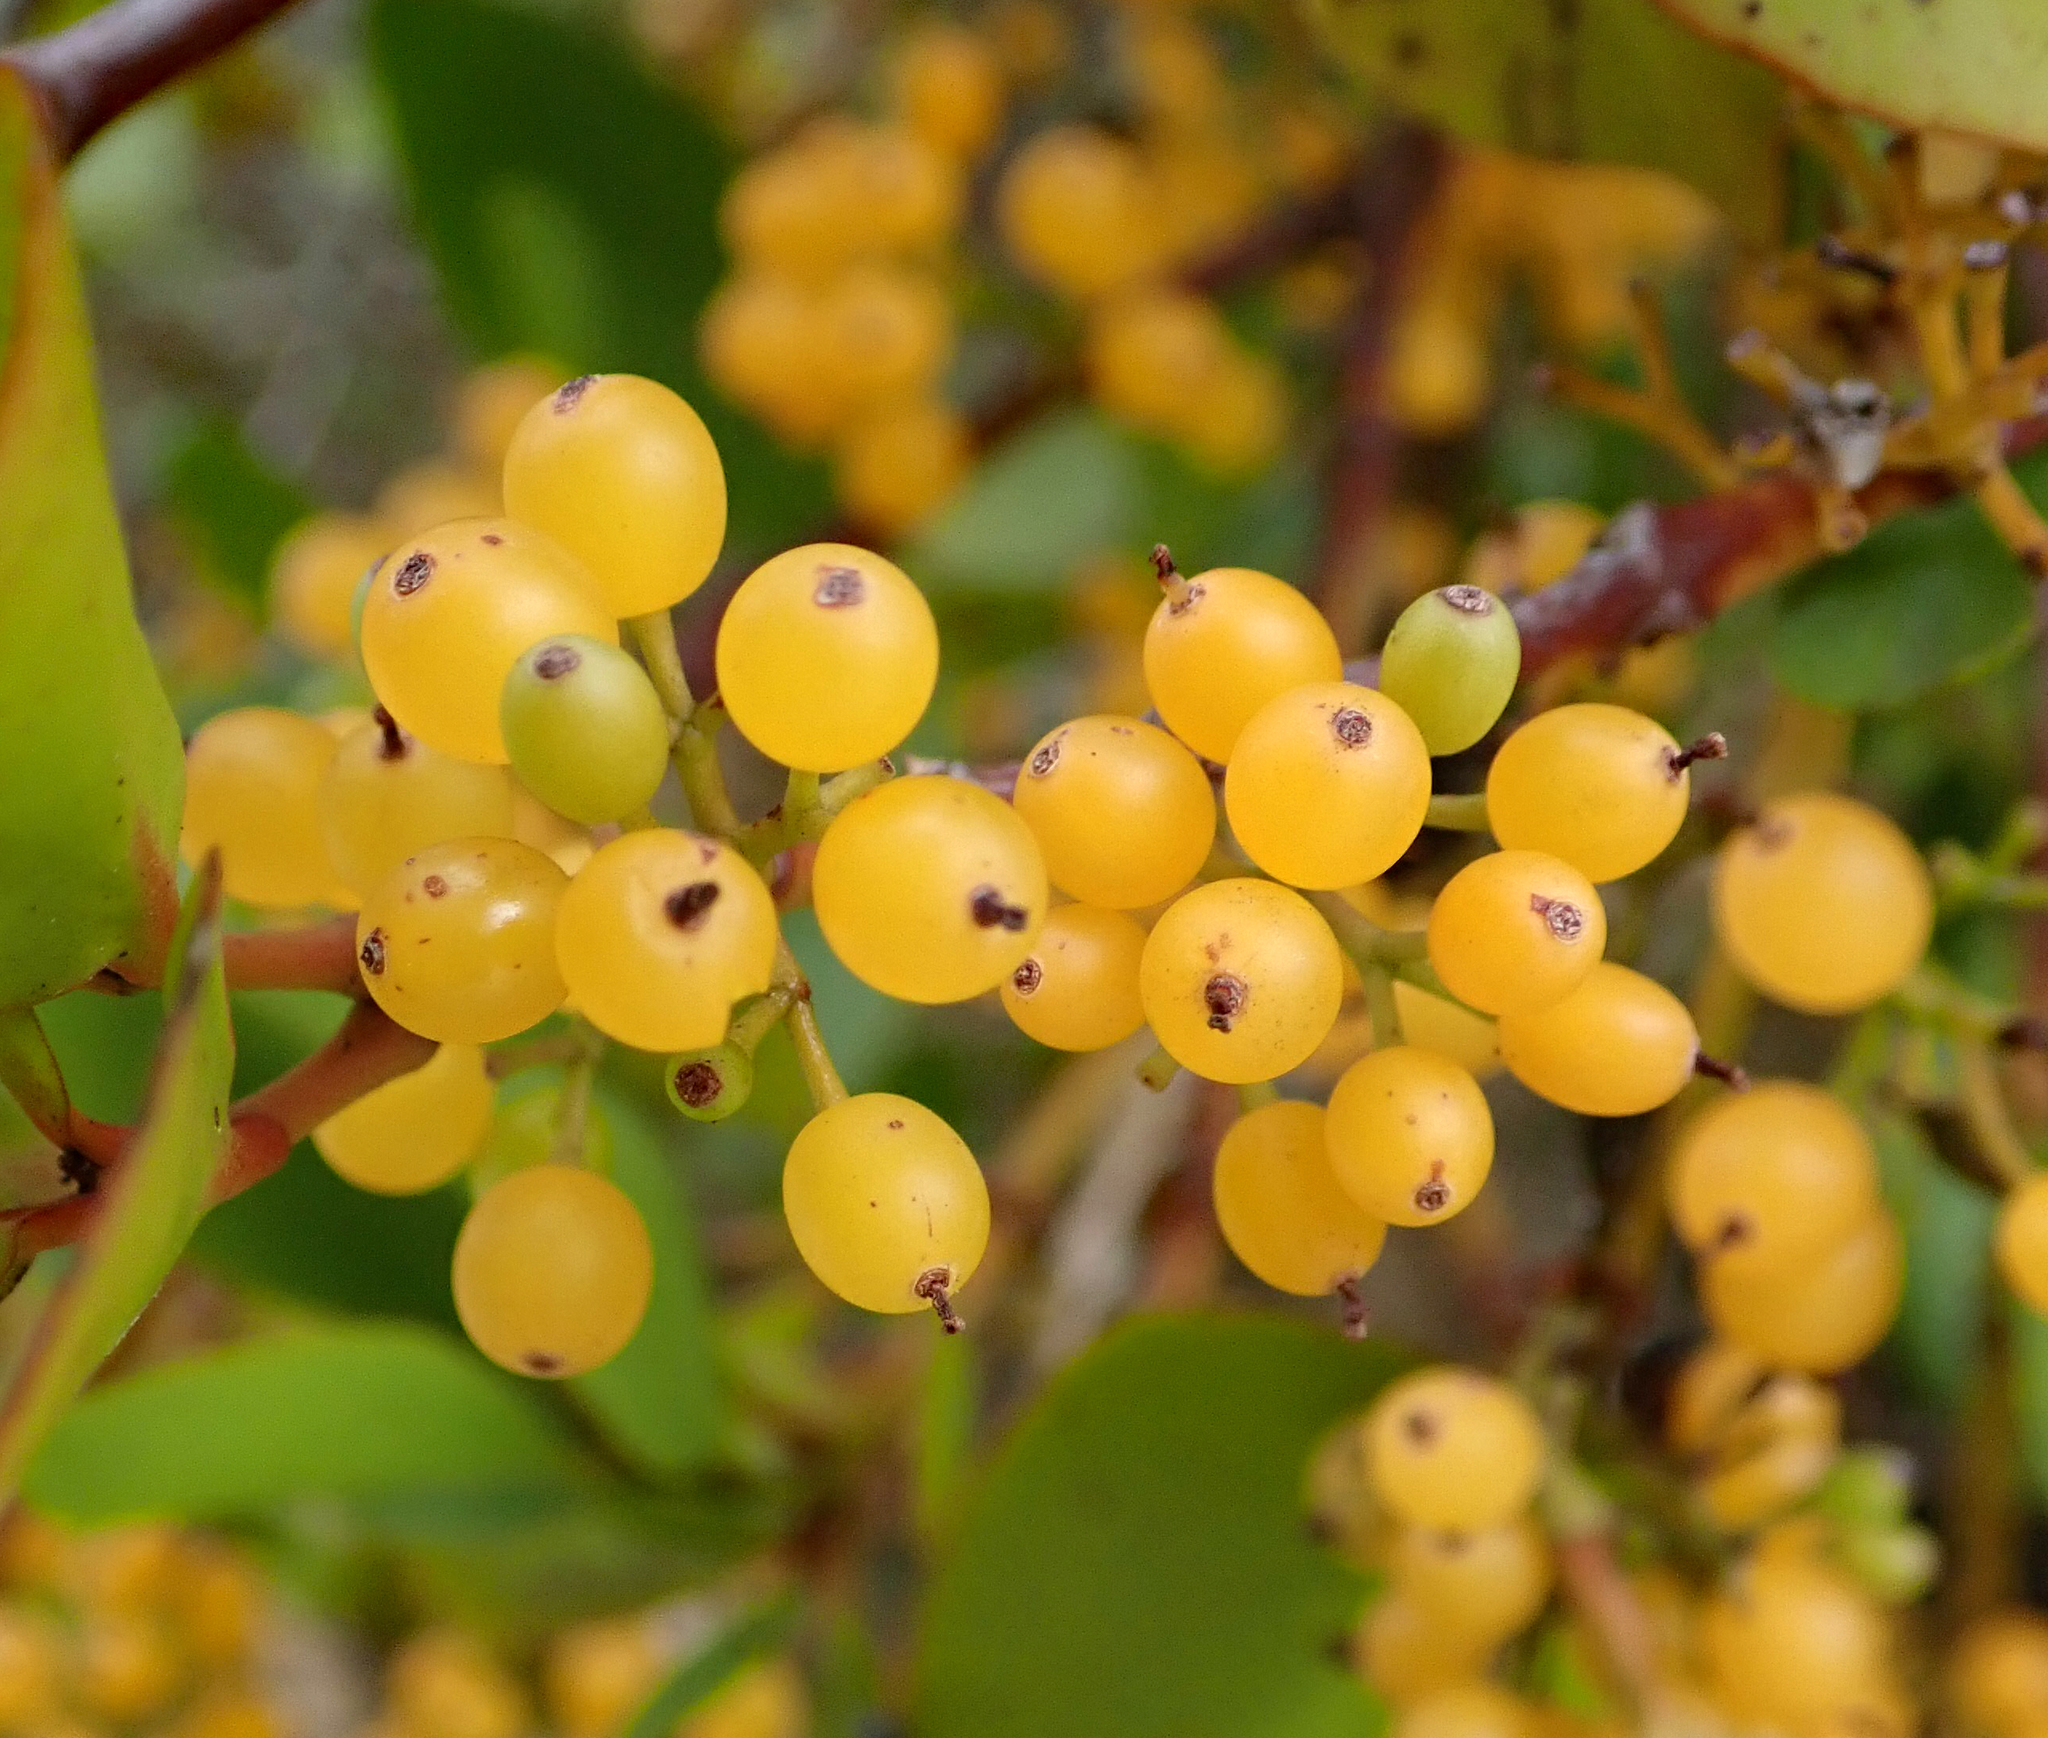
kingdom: Plantae
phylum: Tracheophyta
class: Magnoliopsida
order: Santalales
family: Loranthaceae
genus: Ileostylus
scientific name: Ileostylus micranthus
